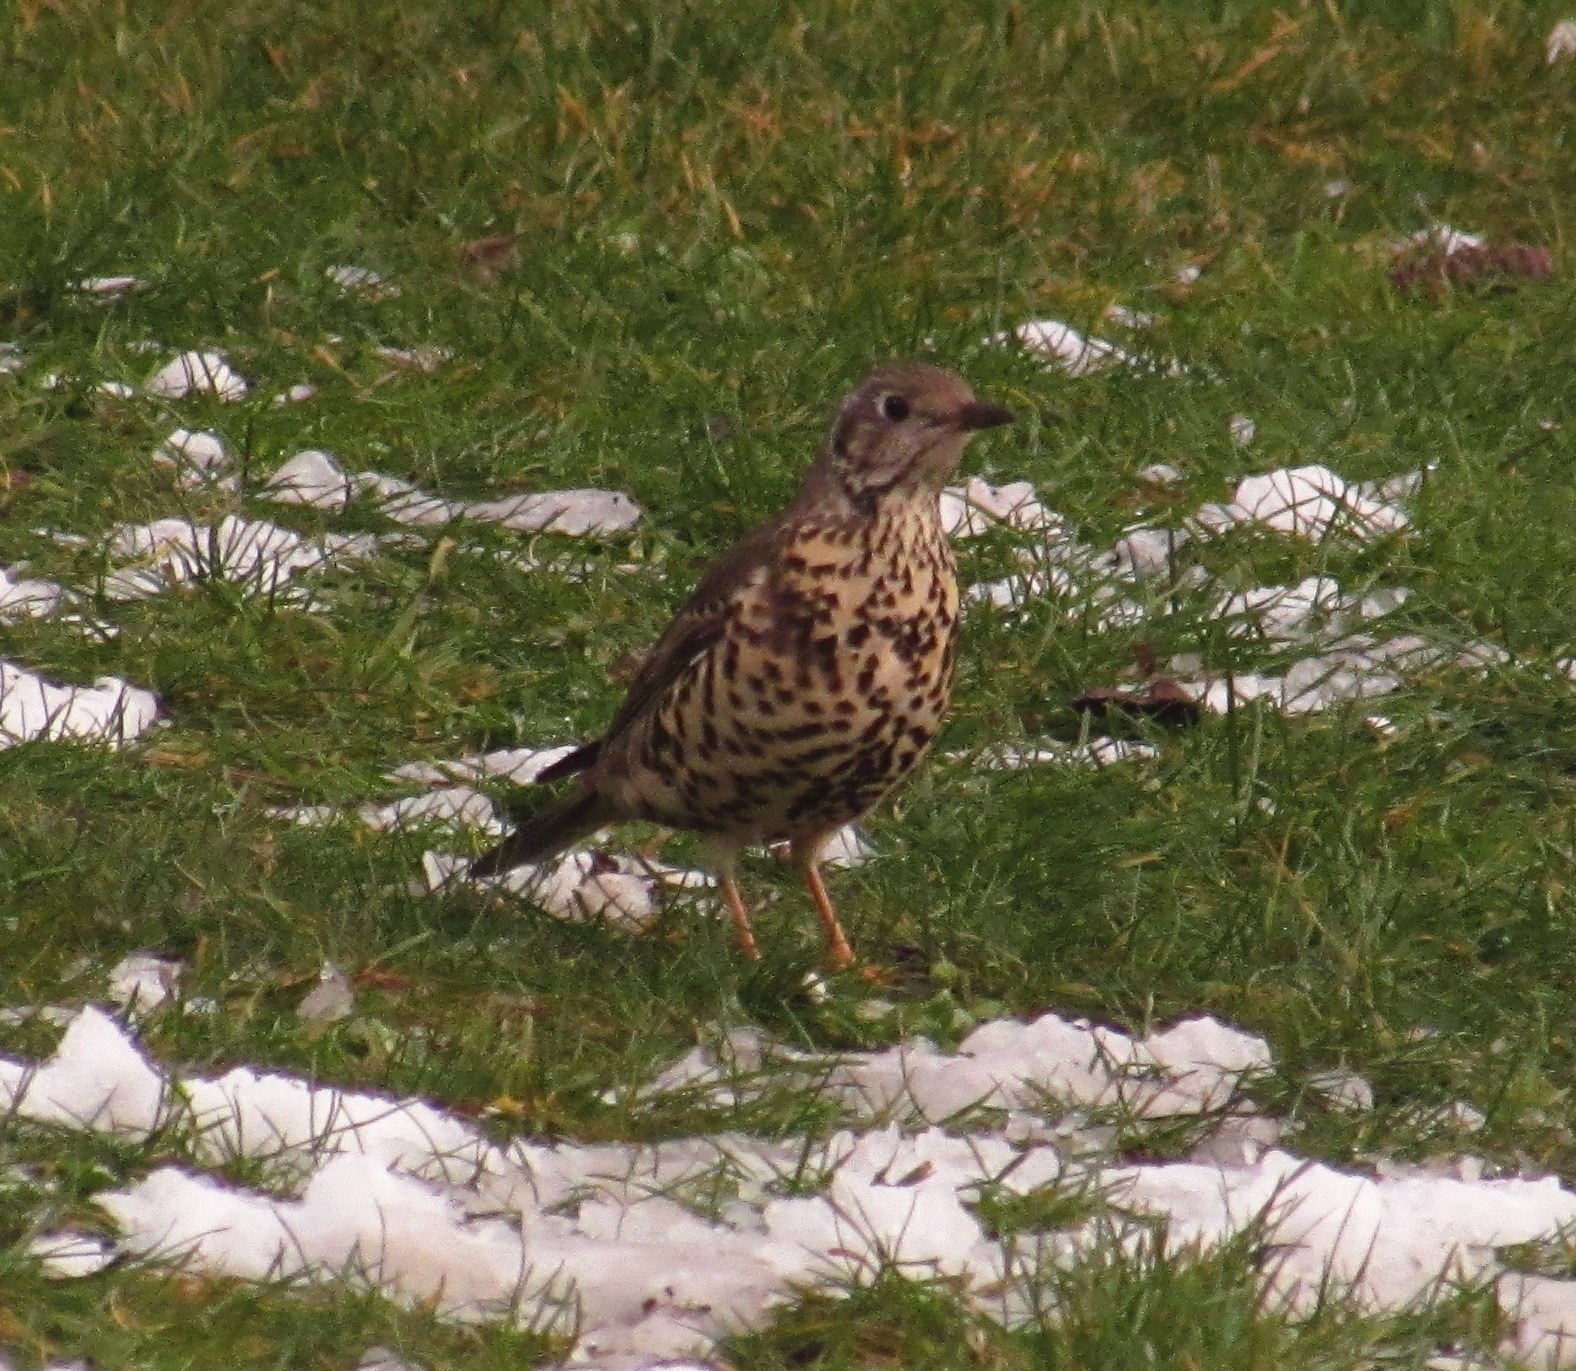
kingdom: Animalia
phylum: Chordata
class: Aves
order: Passeriformes
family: Turdidae
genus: Turdus
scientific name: Turdus viscivorus
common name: Mistle thrush
